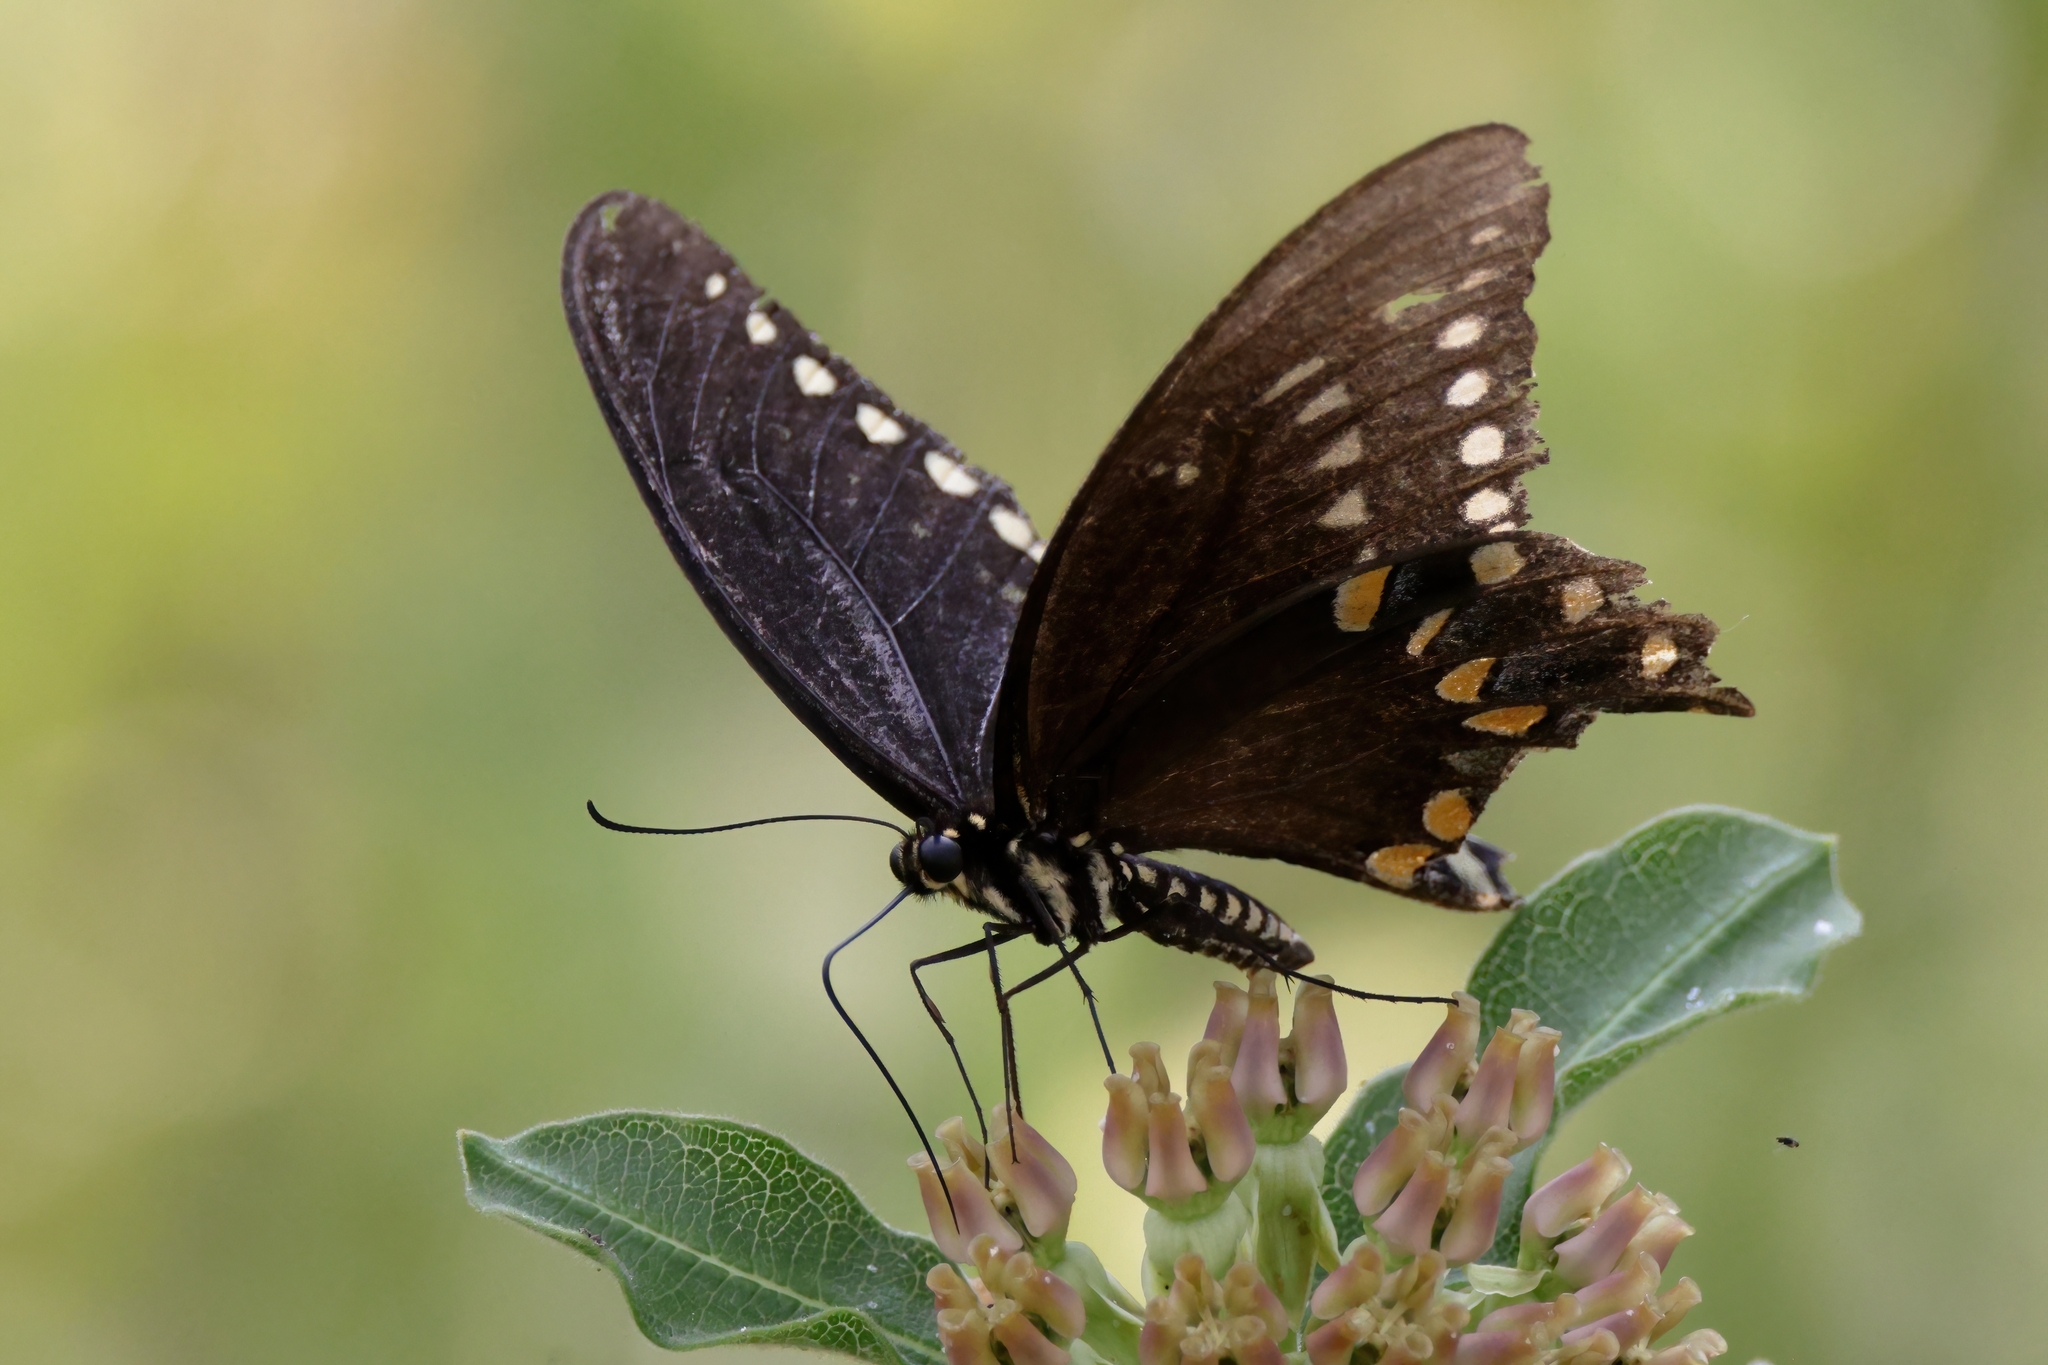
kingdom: Animalia
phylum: Arthropoda
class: Insecta
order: Lepidoptera
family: Papilionidae
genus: Papilio
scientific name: Papilio troilus
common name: Spicebush swallowtail
